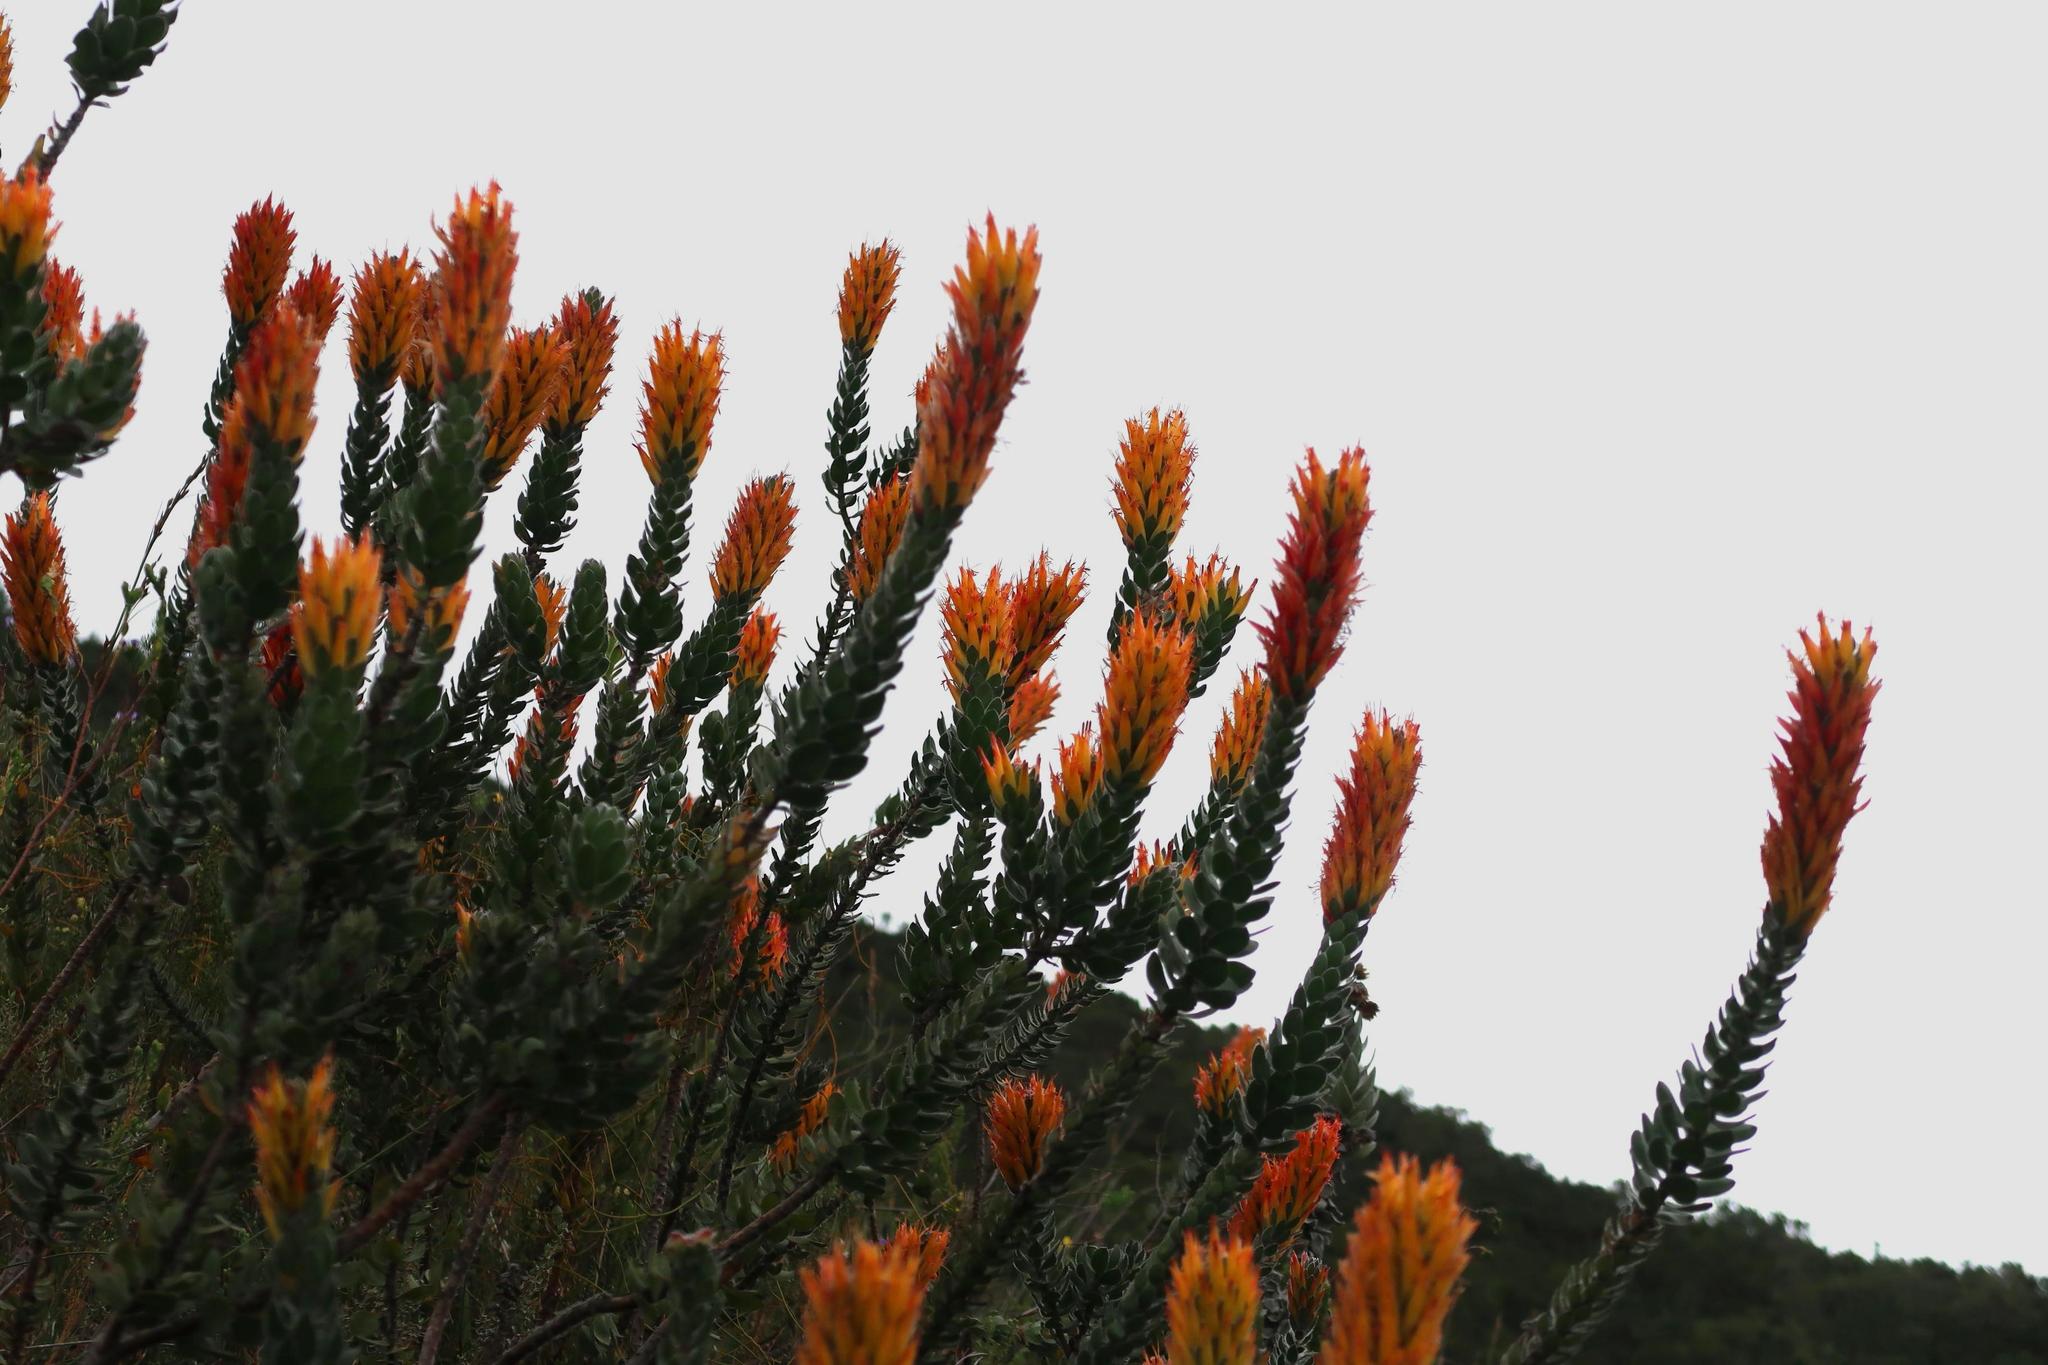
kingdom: Plantae
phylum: Tracheophyta
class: Magnoliopsida
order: Proteales
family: Proteaceae
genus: Mimetes
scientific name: Mimetes pauciflora
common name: Three-flowered pagoda
